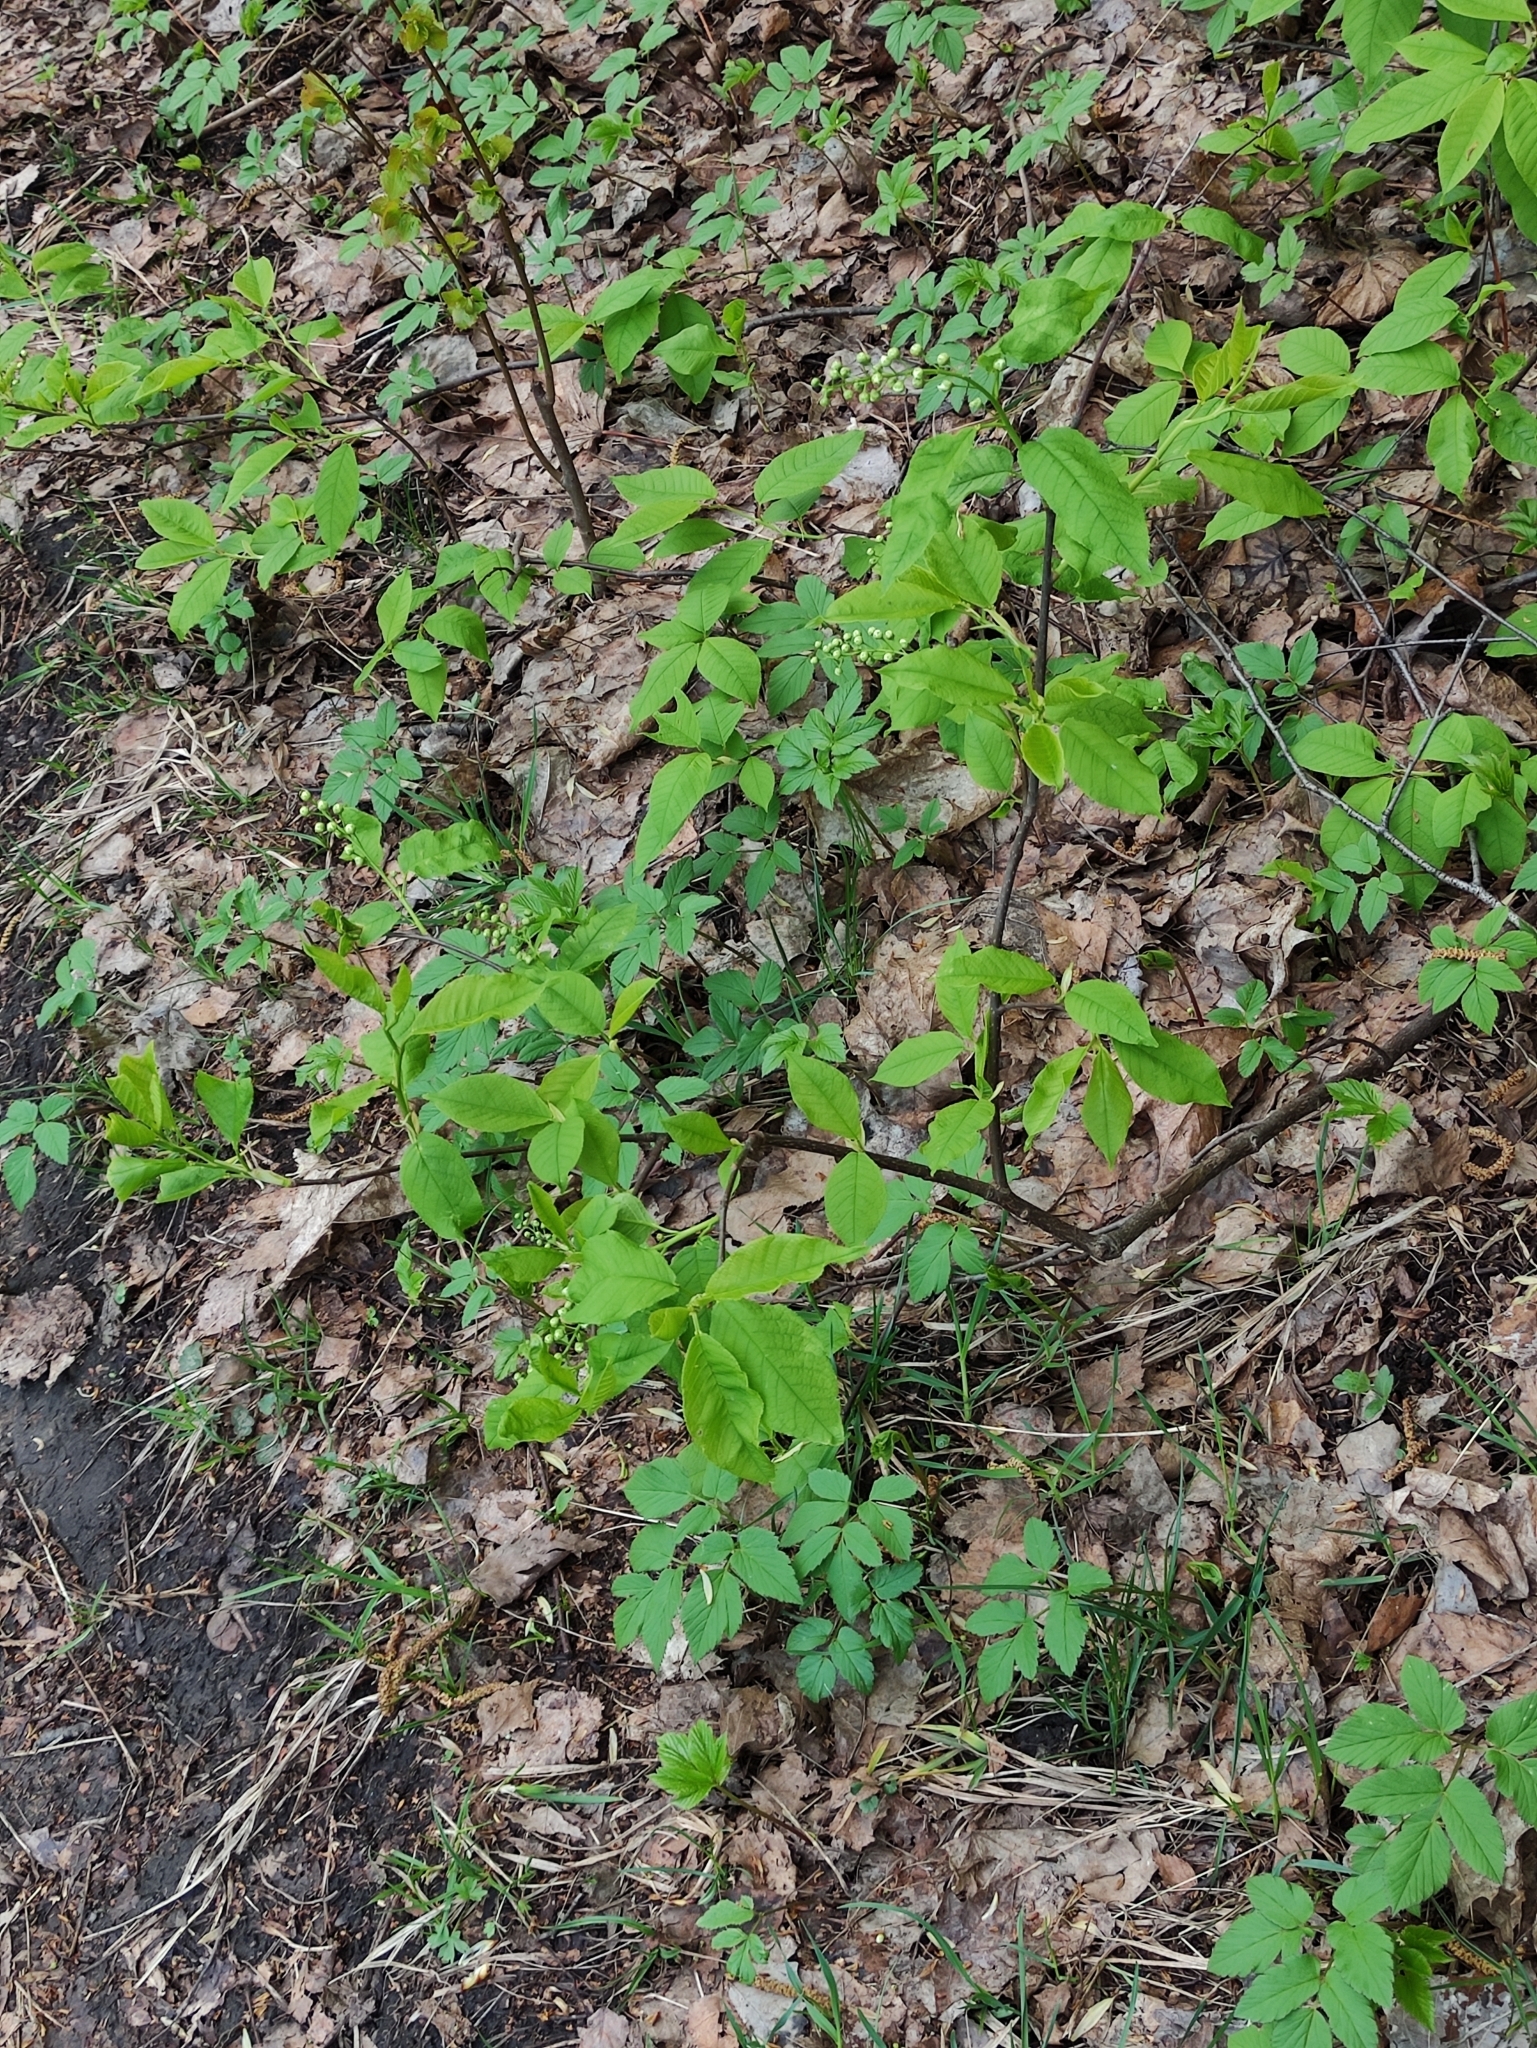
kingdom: Plantae
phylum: Tracheophyta
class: Magnoliopsida
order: Rosales
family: Rosaceae
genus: Prunus
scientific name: Prunus padus
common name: Bird cherry
